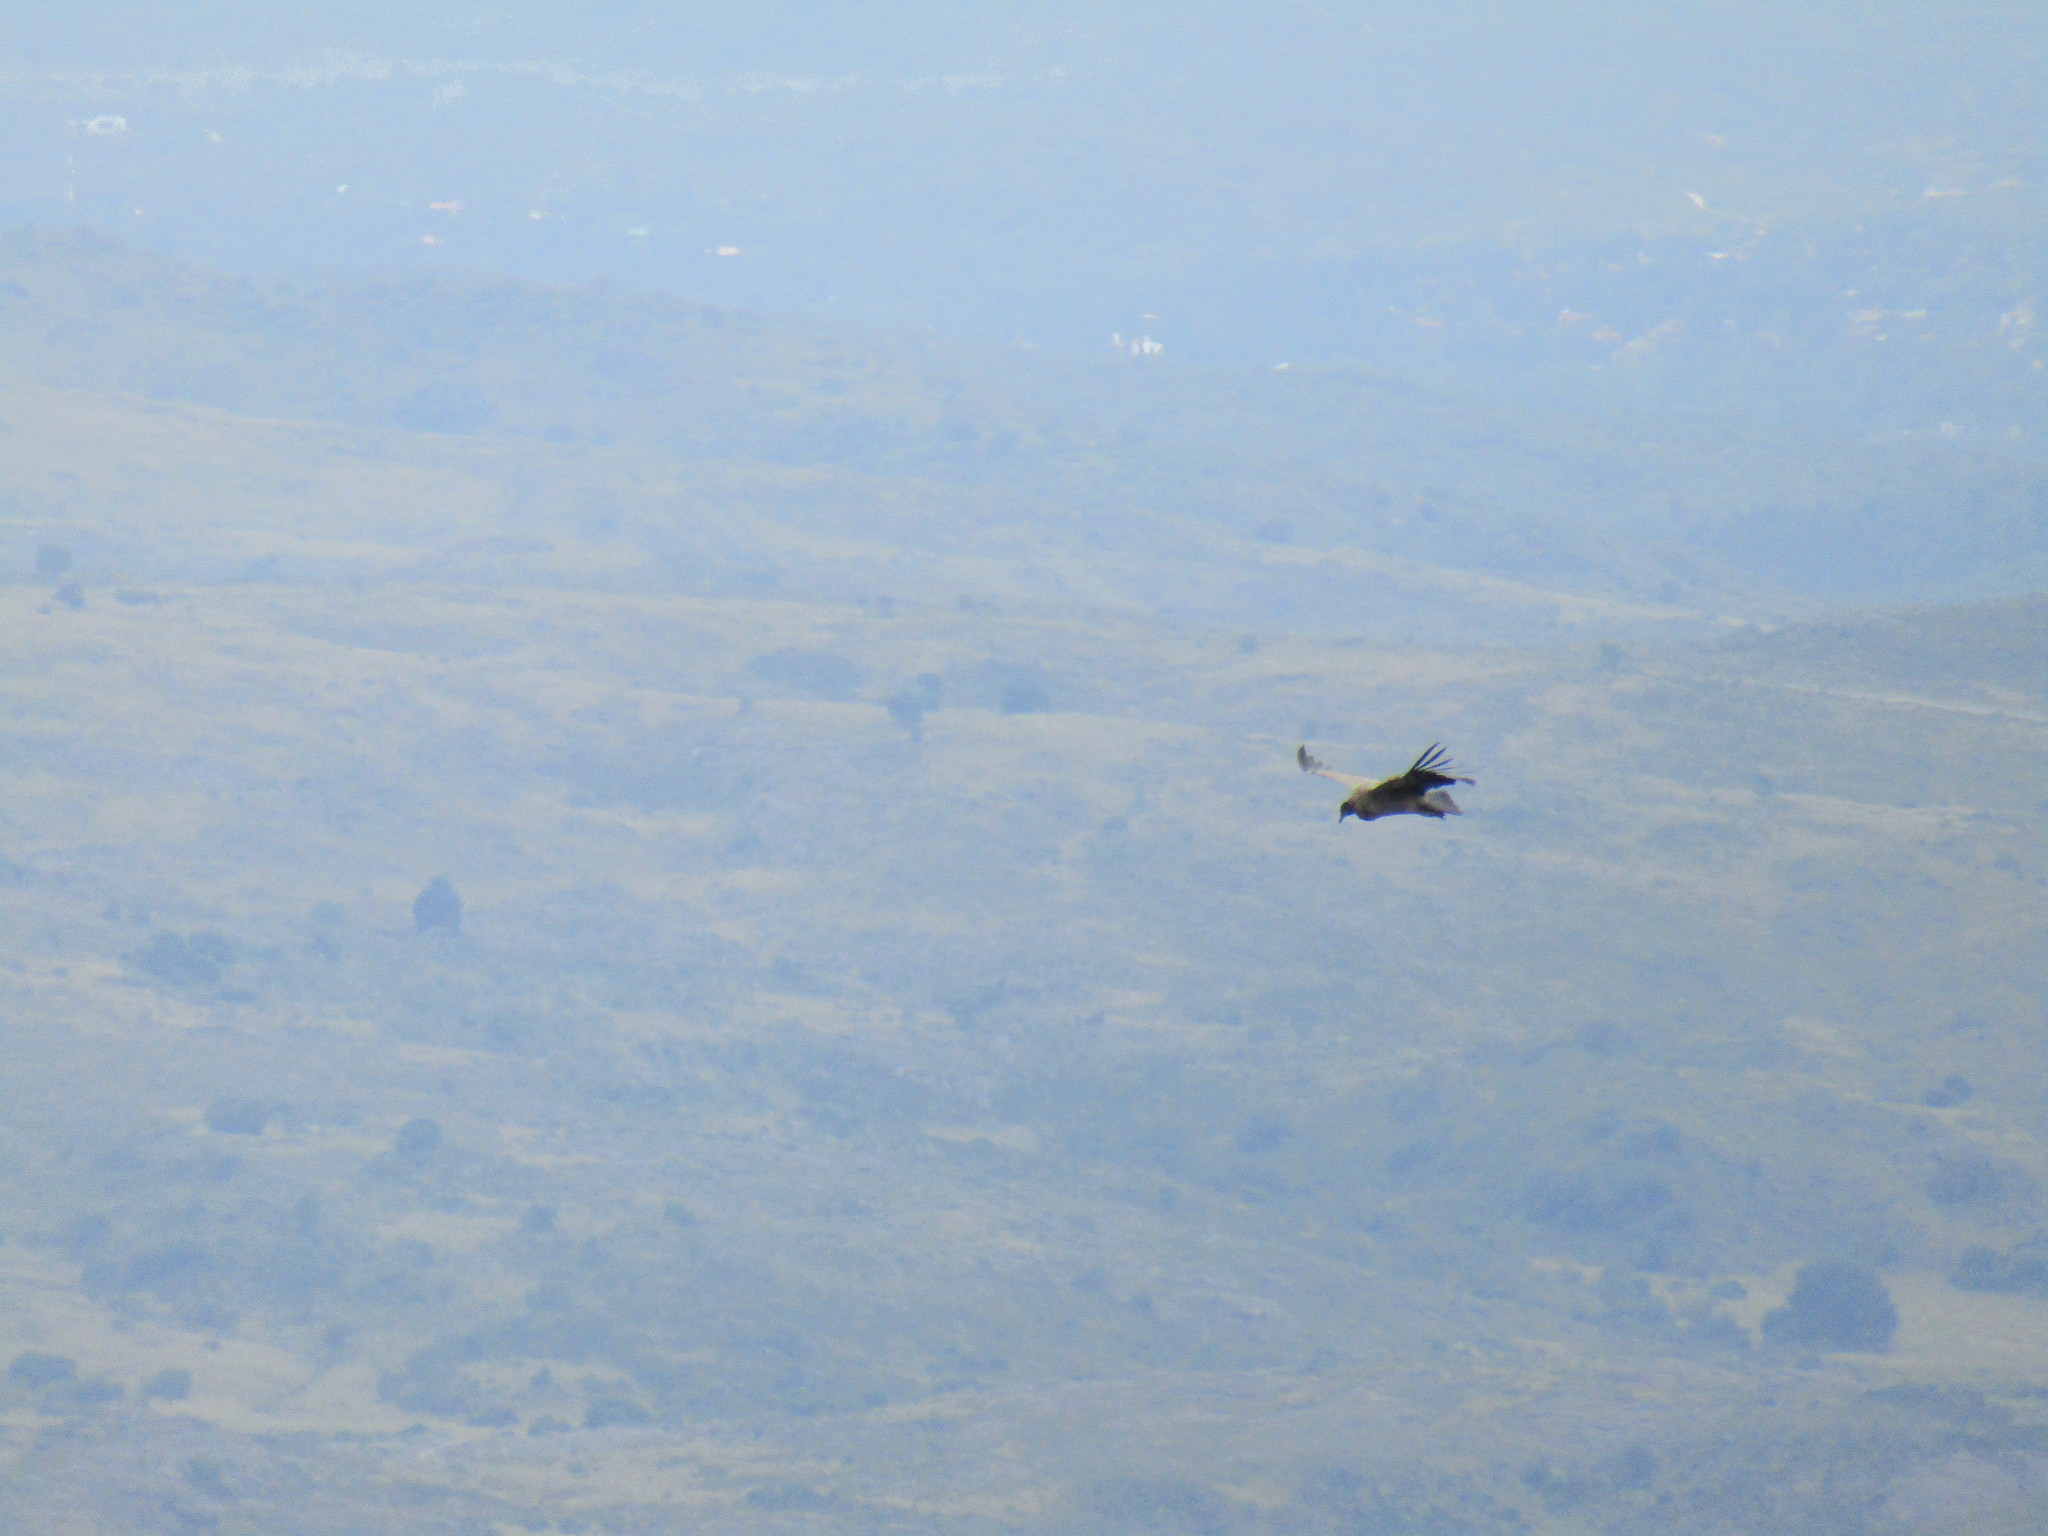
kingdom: Animalia
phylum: Chordata
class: Aves
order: Accipitriformes
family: Cathartidae
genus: Vultur
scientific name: Vultur gryphus
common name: Andean condor
